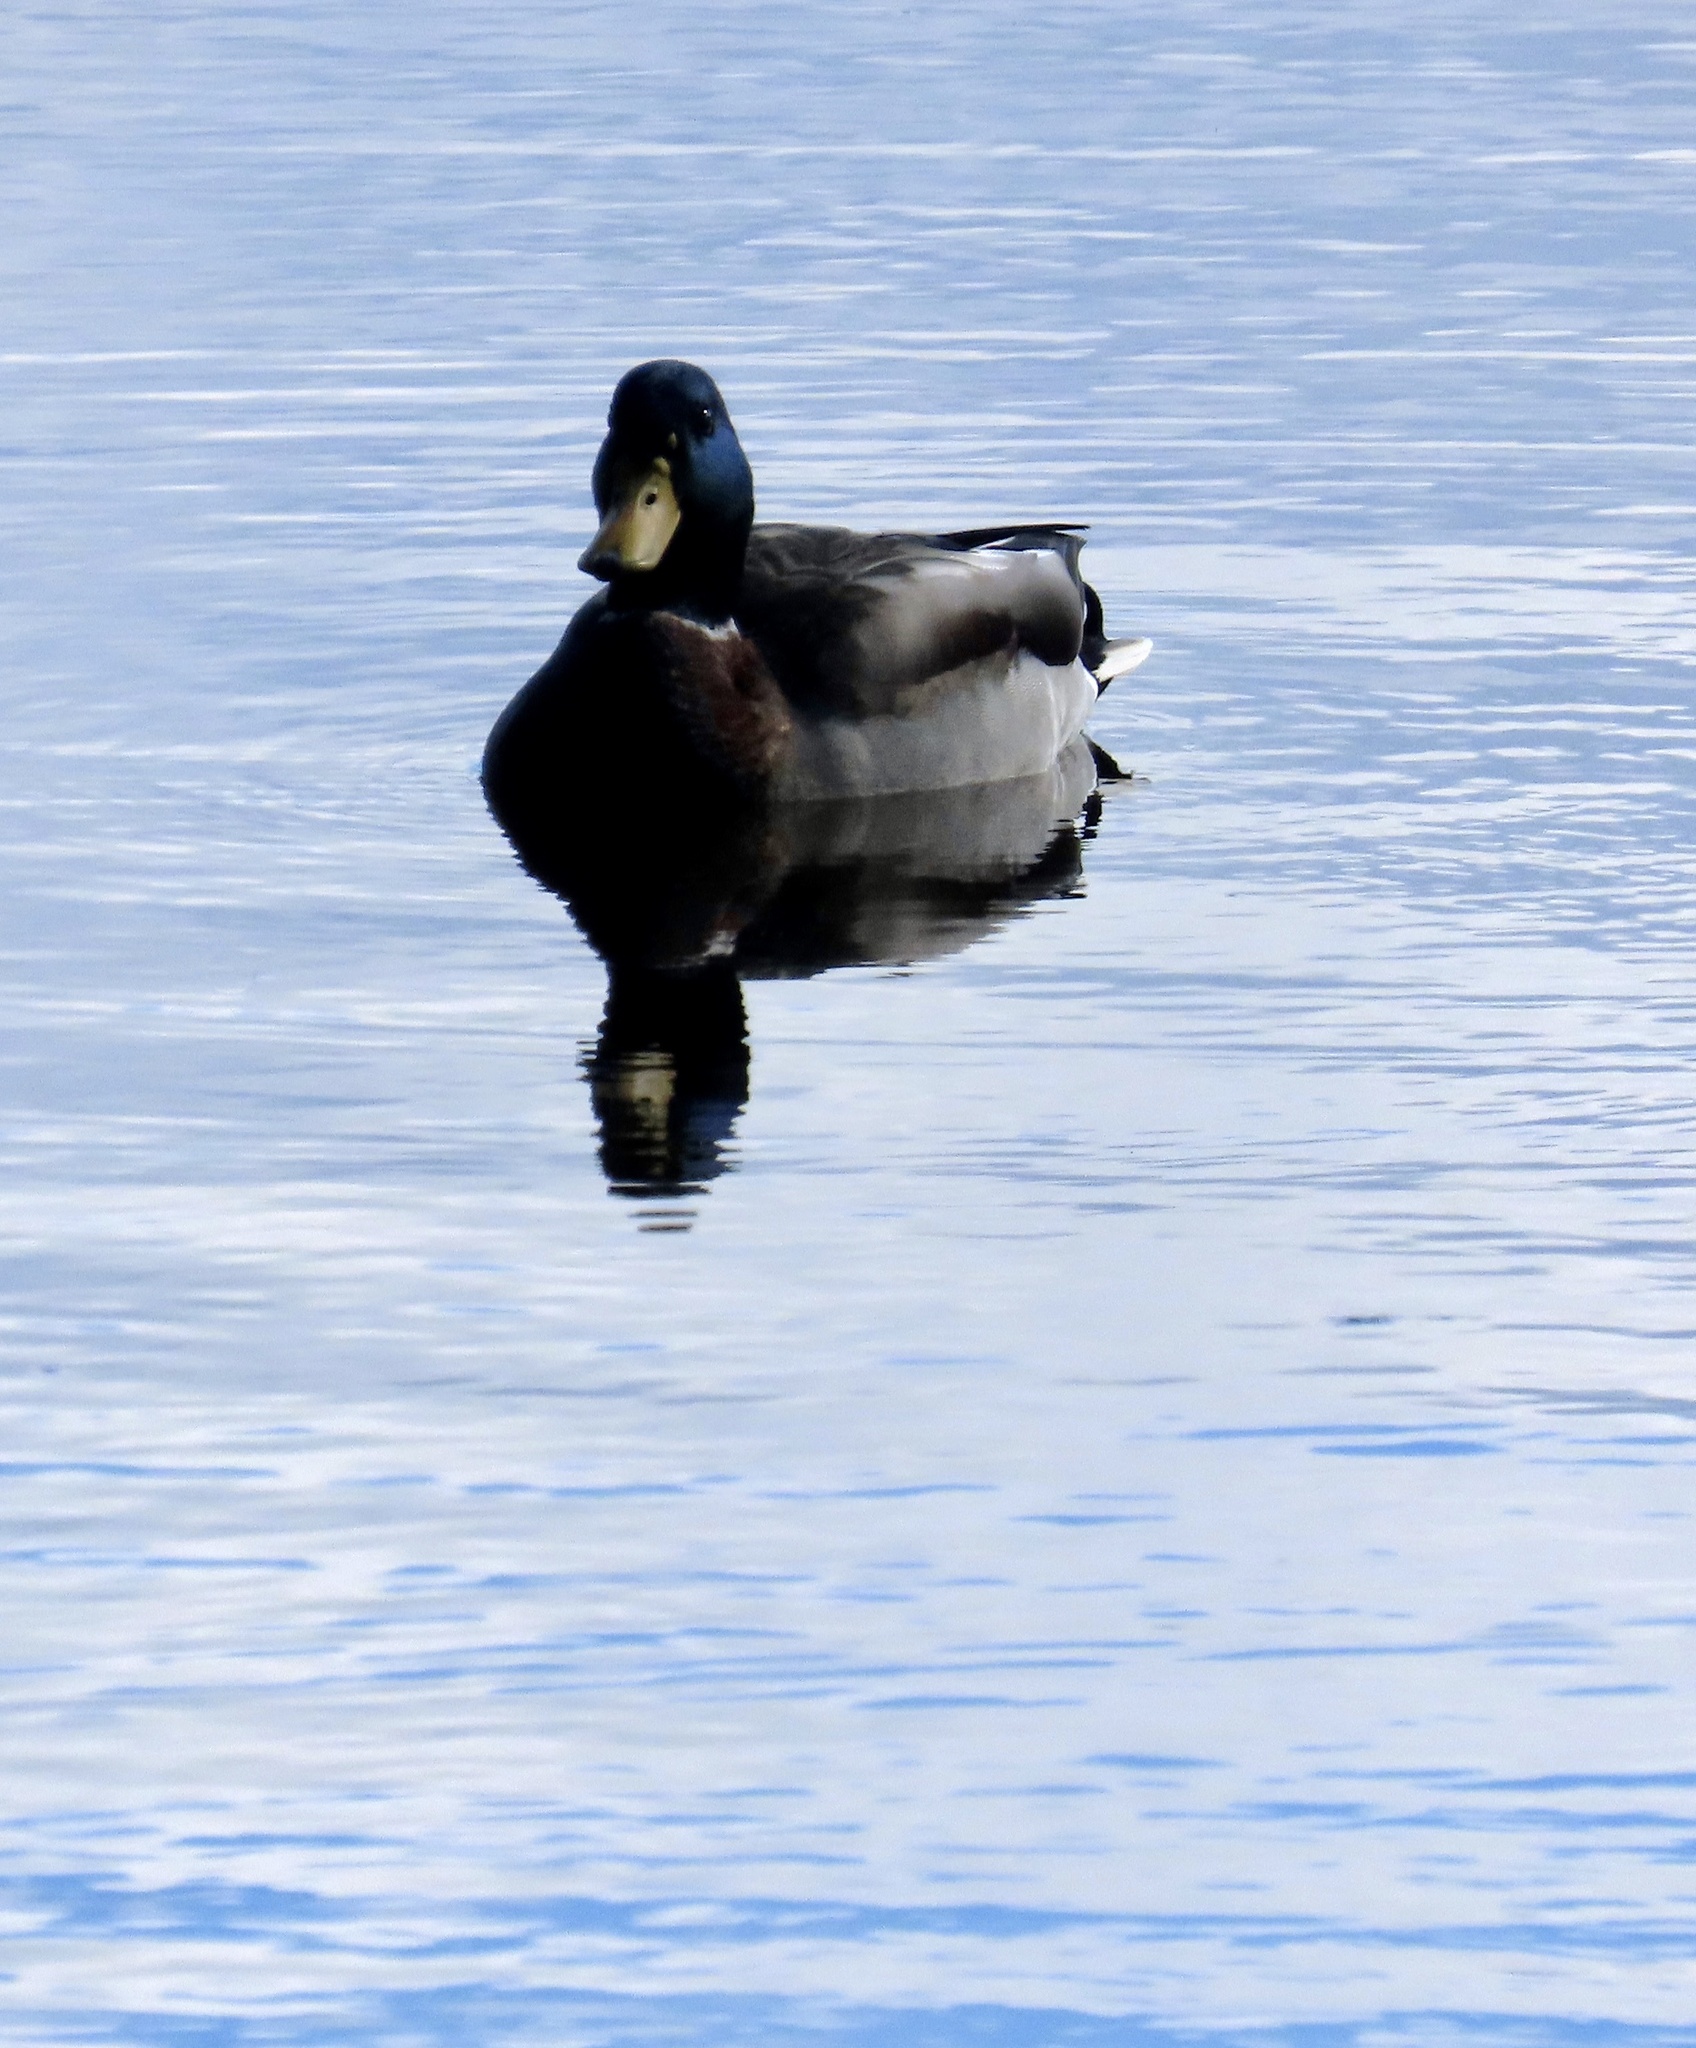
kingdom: Animalia
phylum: Chordata
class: Aves
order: Anseriformes
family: Anatidae
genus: Anas
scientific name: Anas platyrhynchos
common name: Mallard
